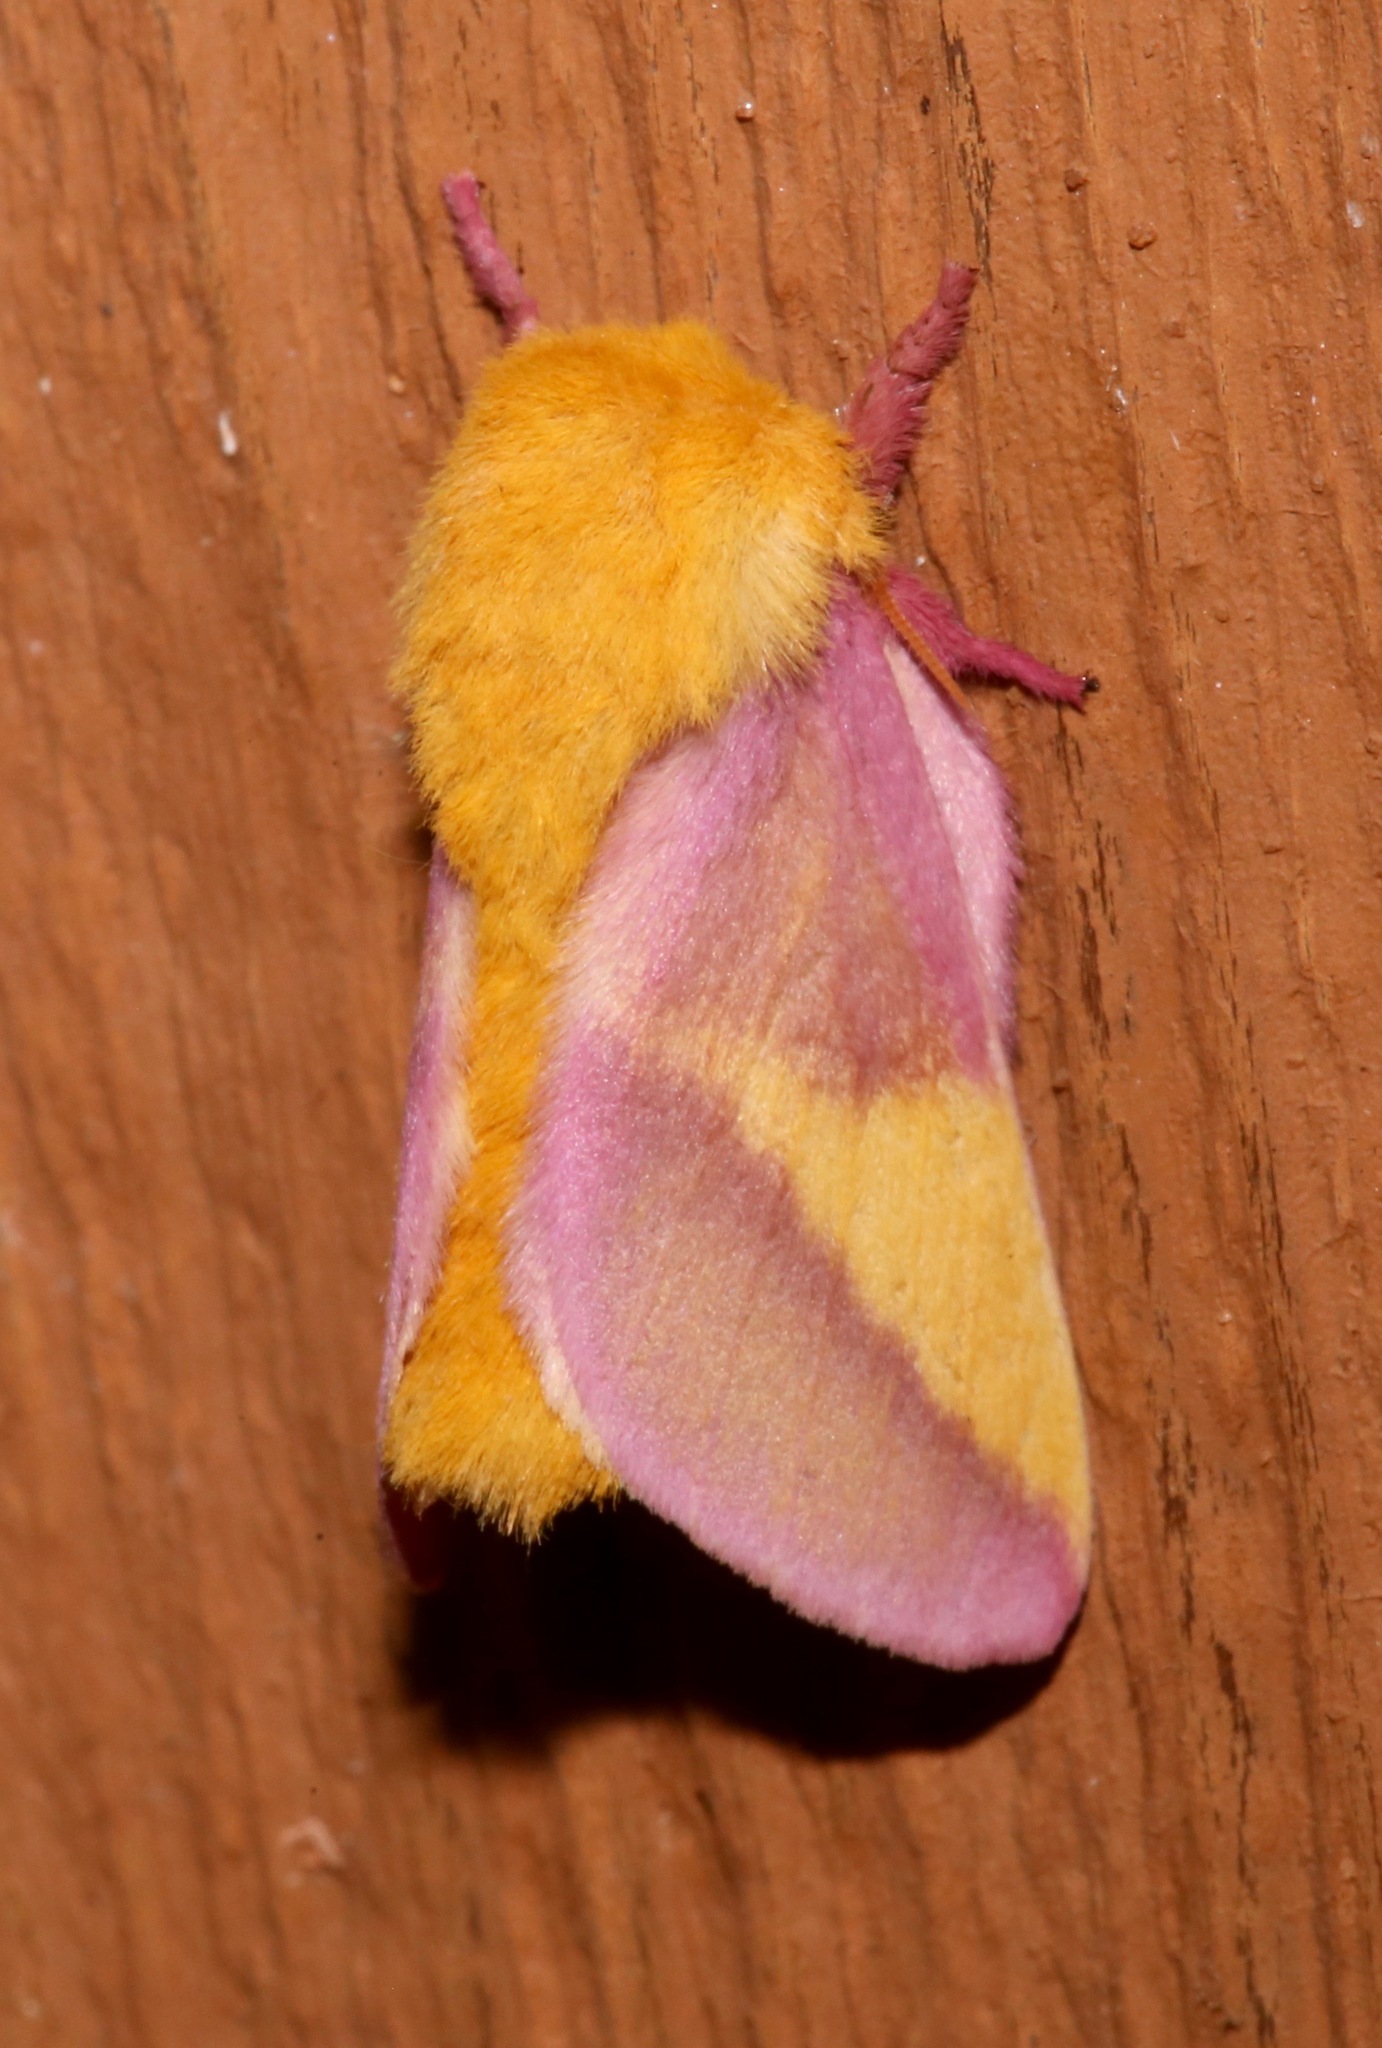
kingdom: Animalia
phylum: Arthropoda
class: Insecta
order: Lepidoptera
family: Saturniidae
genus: Dryocampa
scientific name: Dryocampa rubicunda
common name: Rosy maple moth
